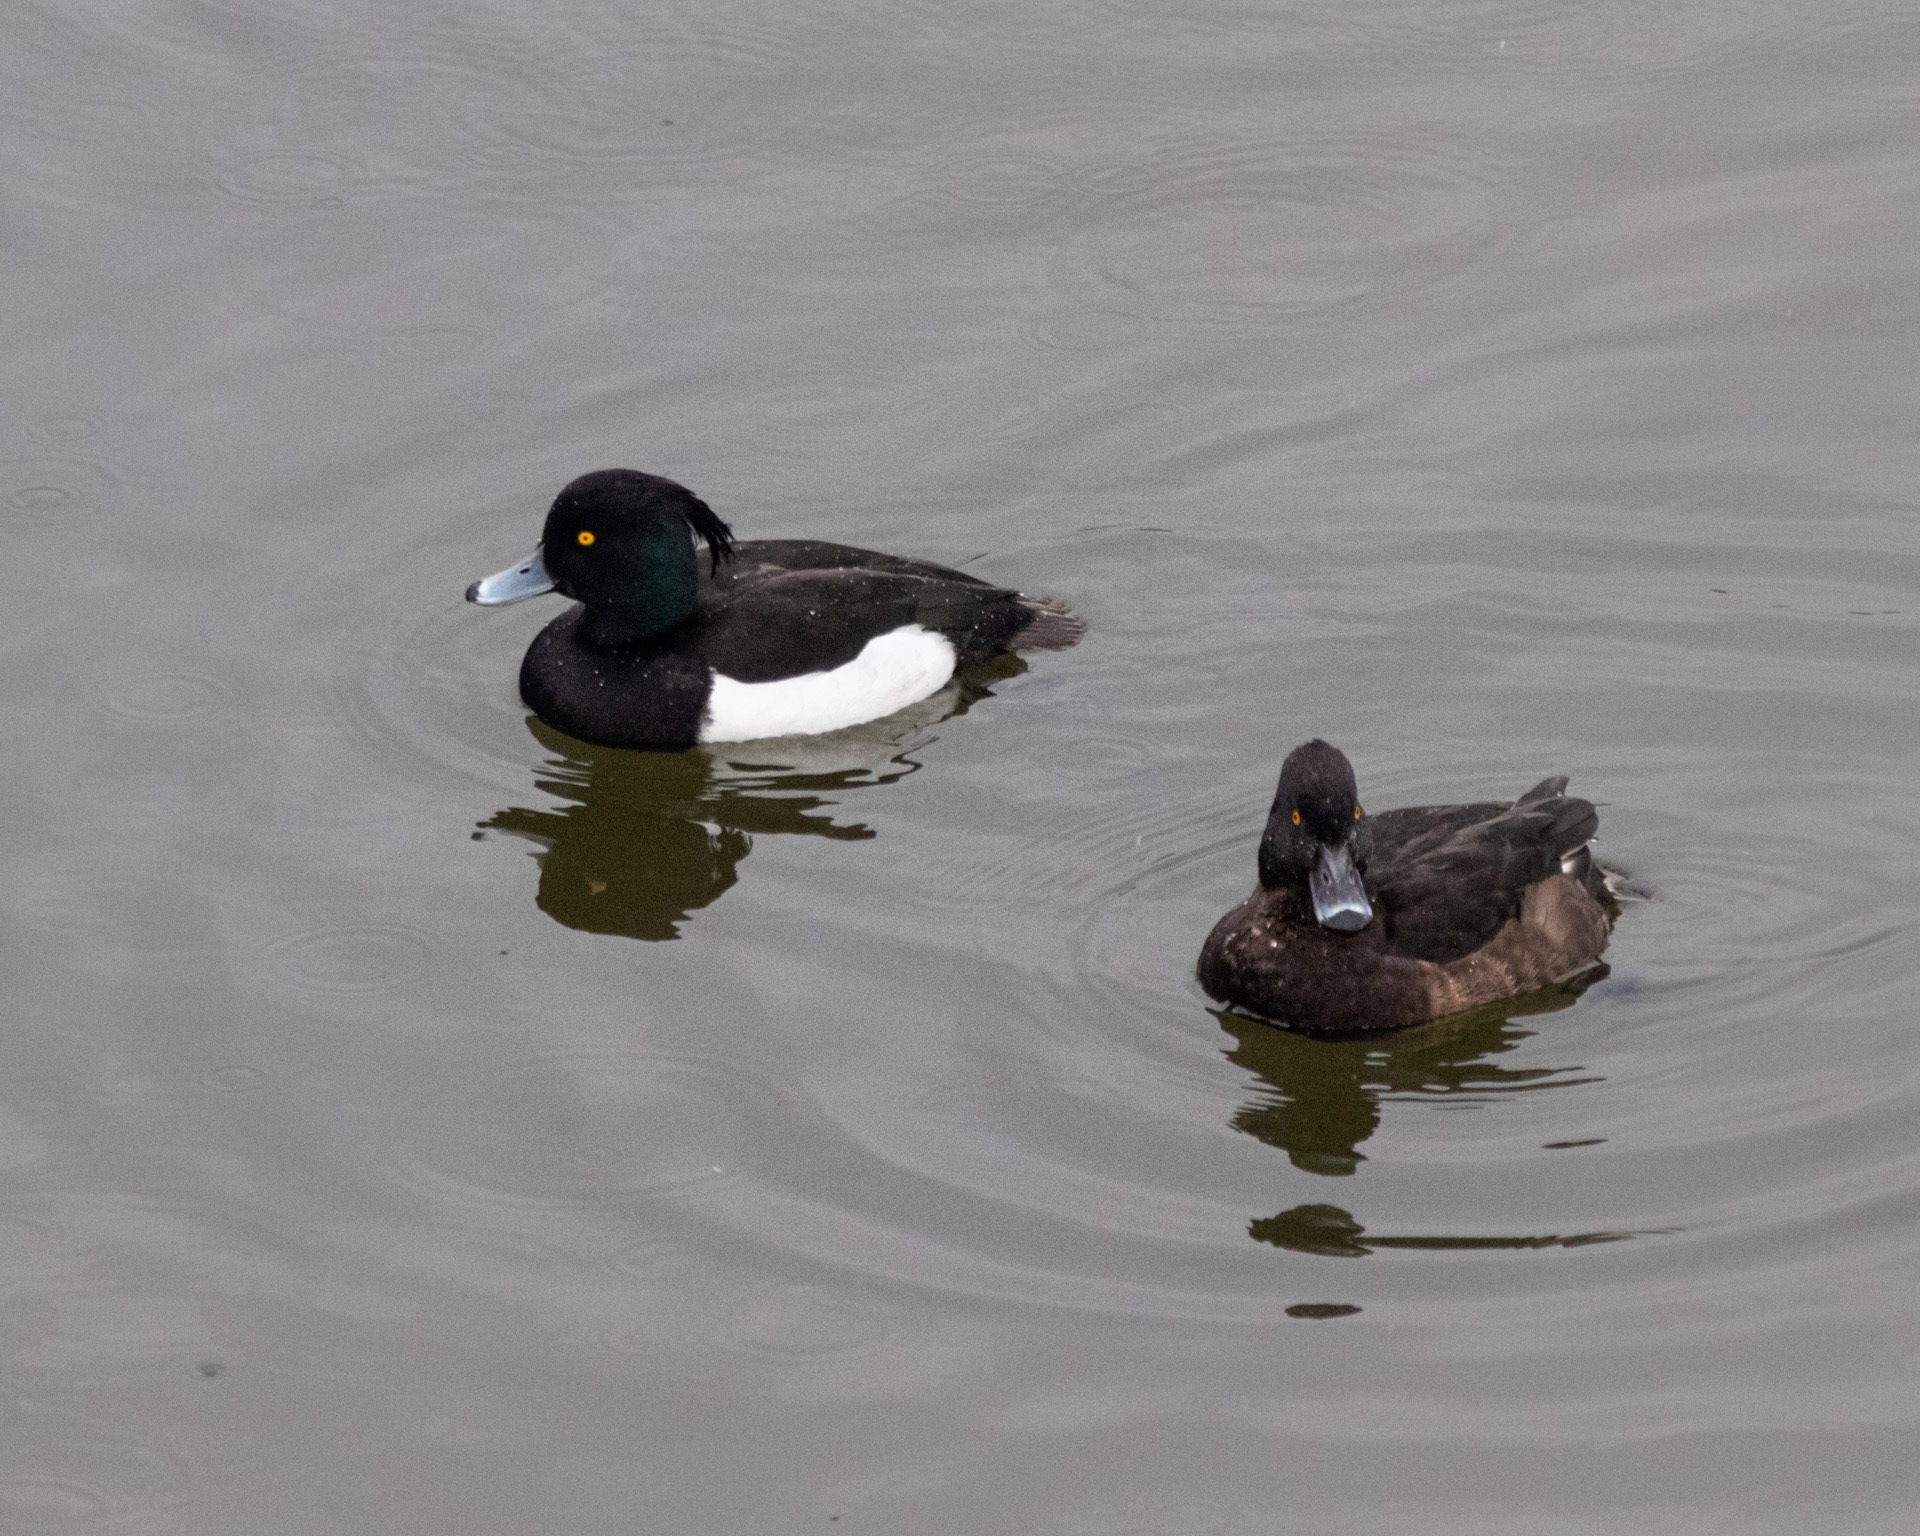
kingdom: Animalia
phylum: Chordata
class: Aves
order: Anseriformes
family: Anatidae
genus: Aythya
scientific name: Aythya fuligula
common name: Tufted duck
